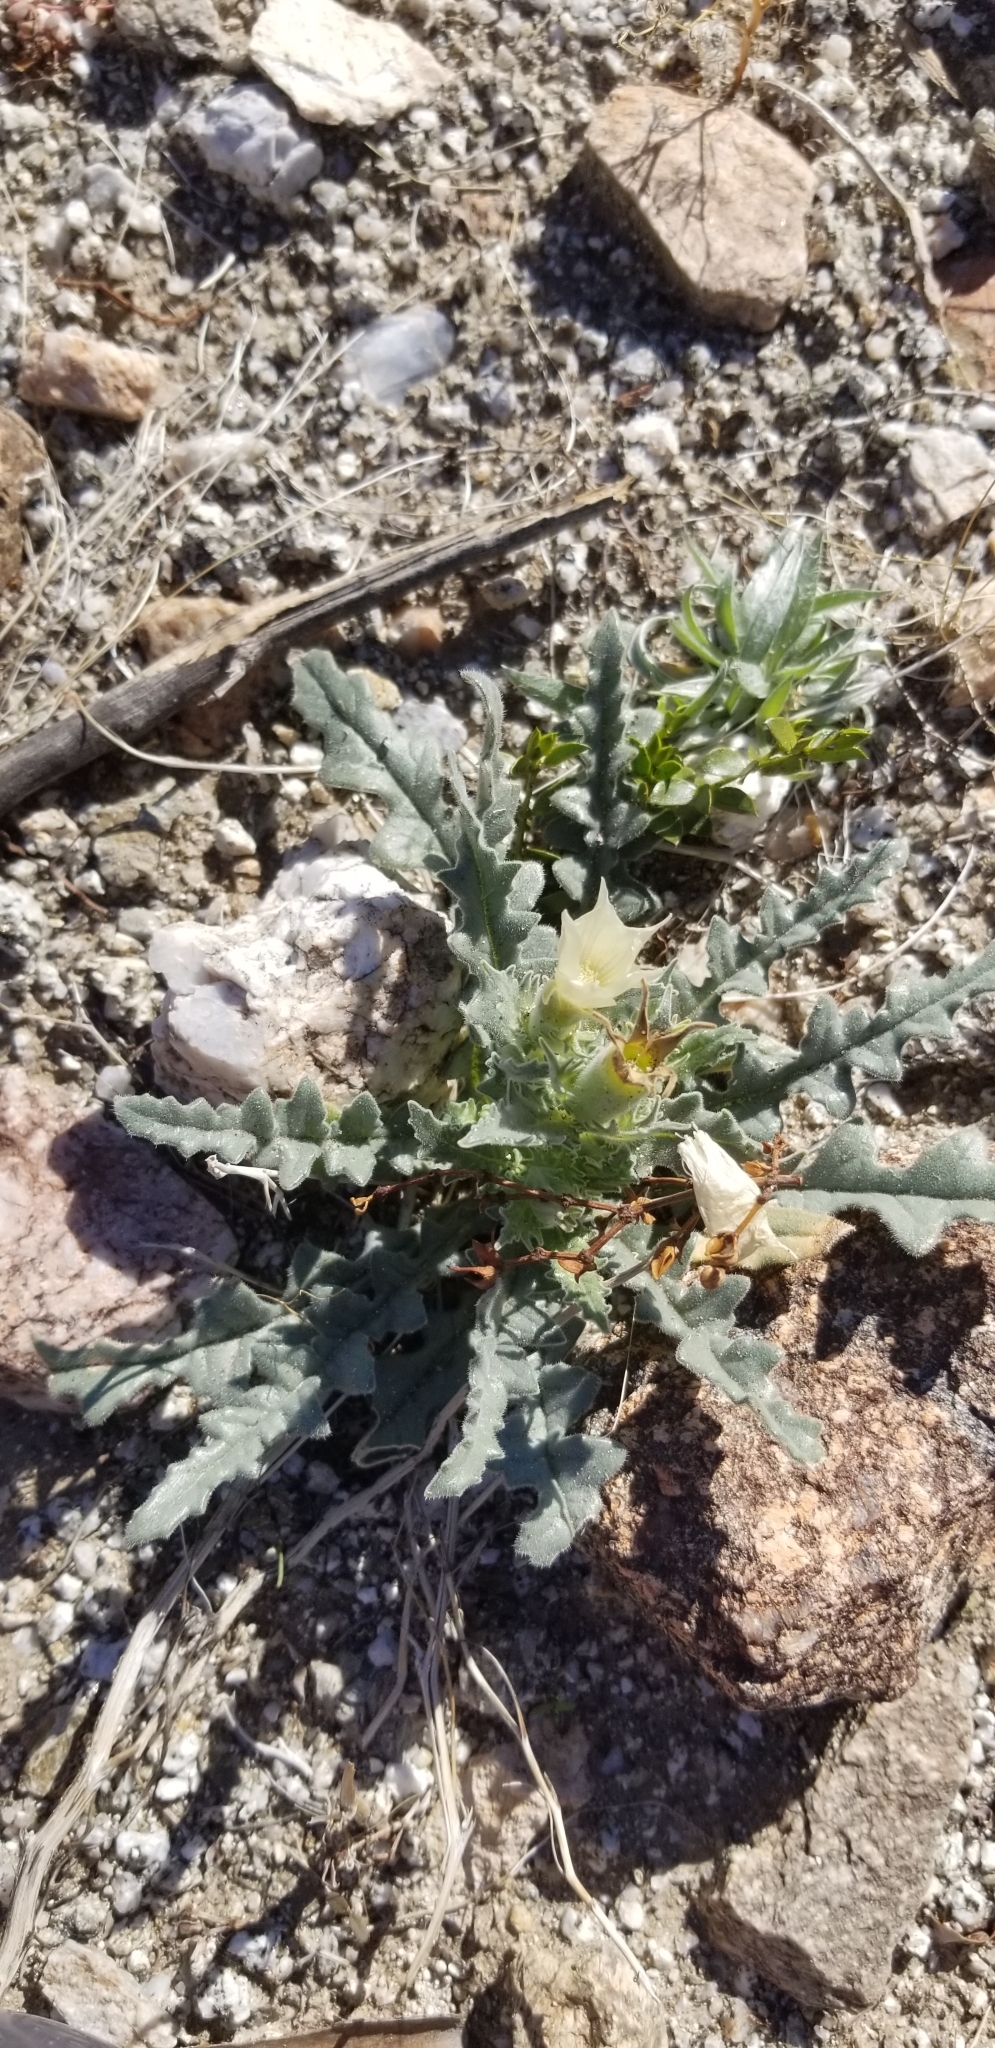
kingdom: Plantae
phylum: Tracheophyta
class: Magnoliopsida
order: Cornales
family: Loasaceae
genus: Mentzelia
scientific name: Mentzelia involucrata
